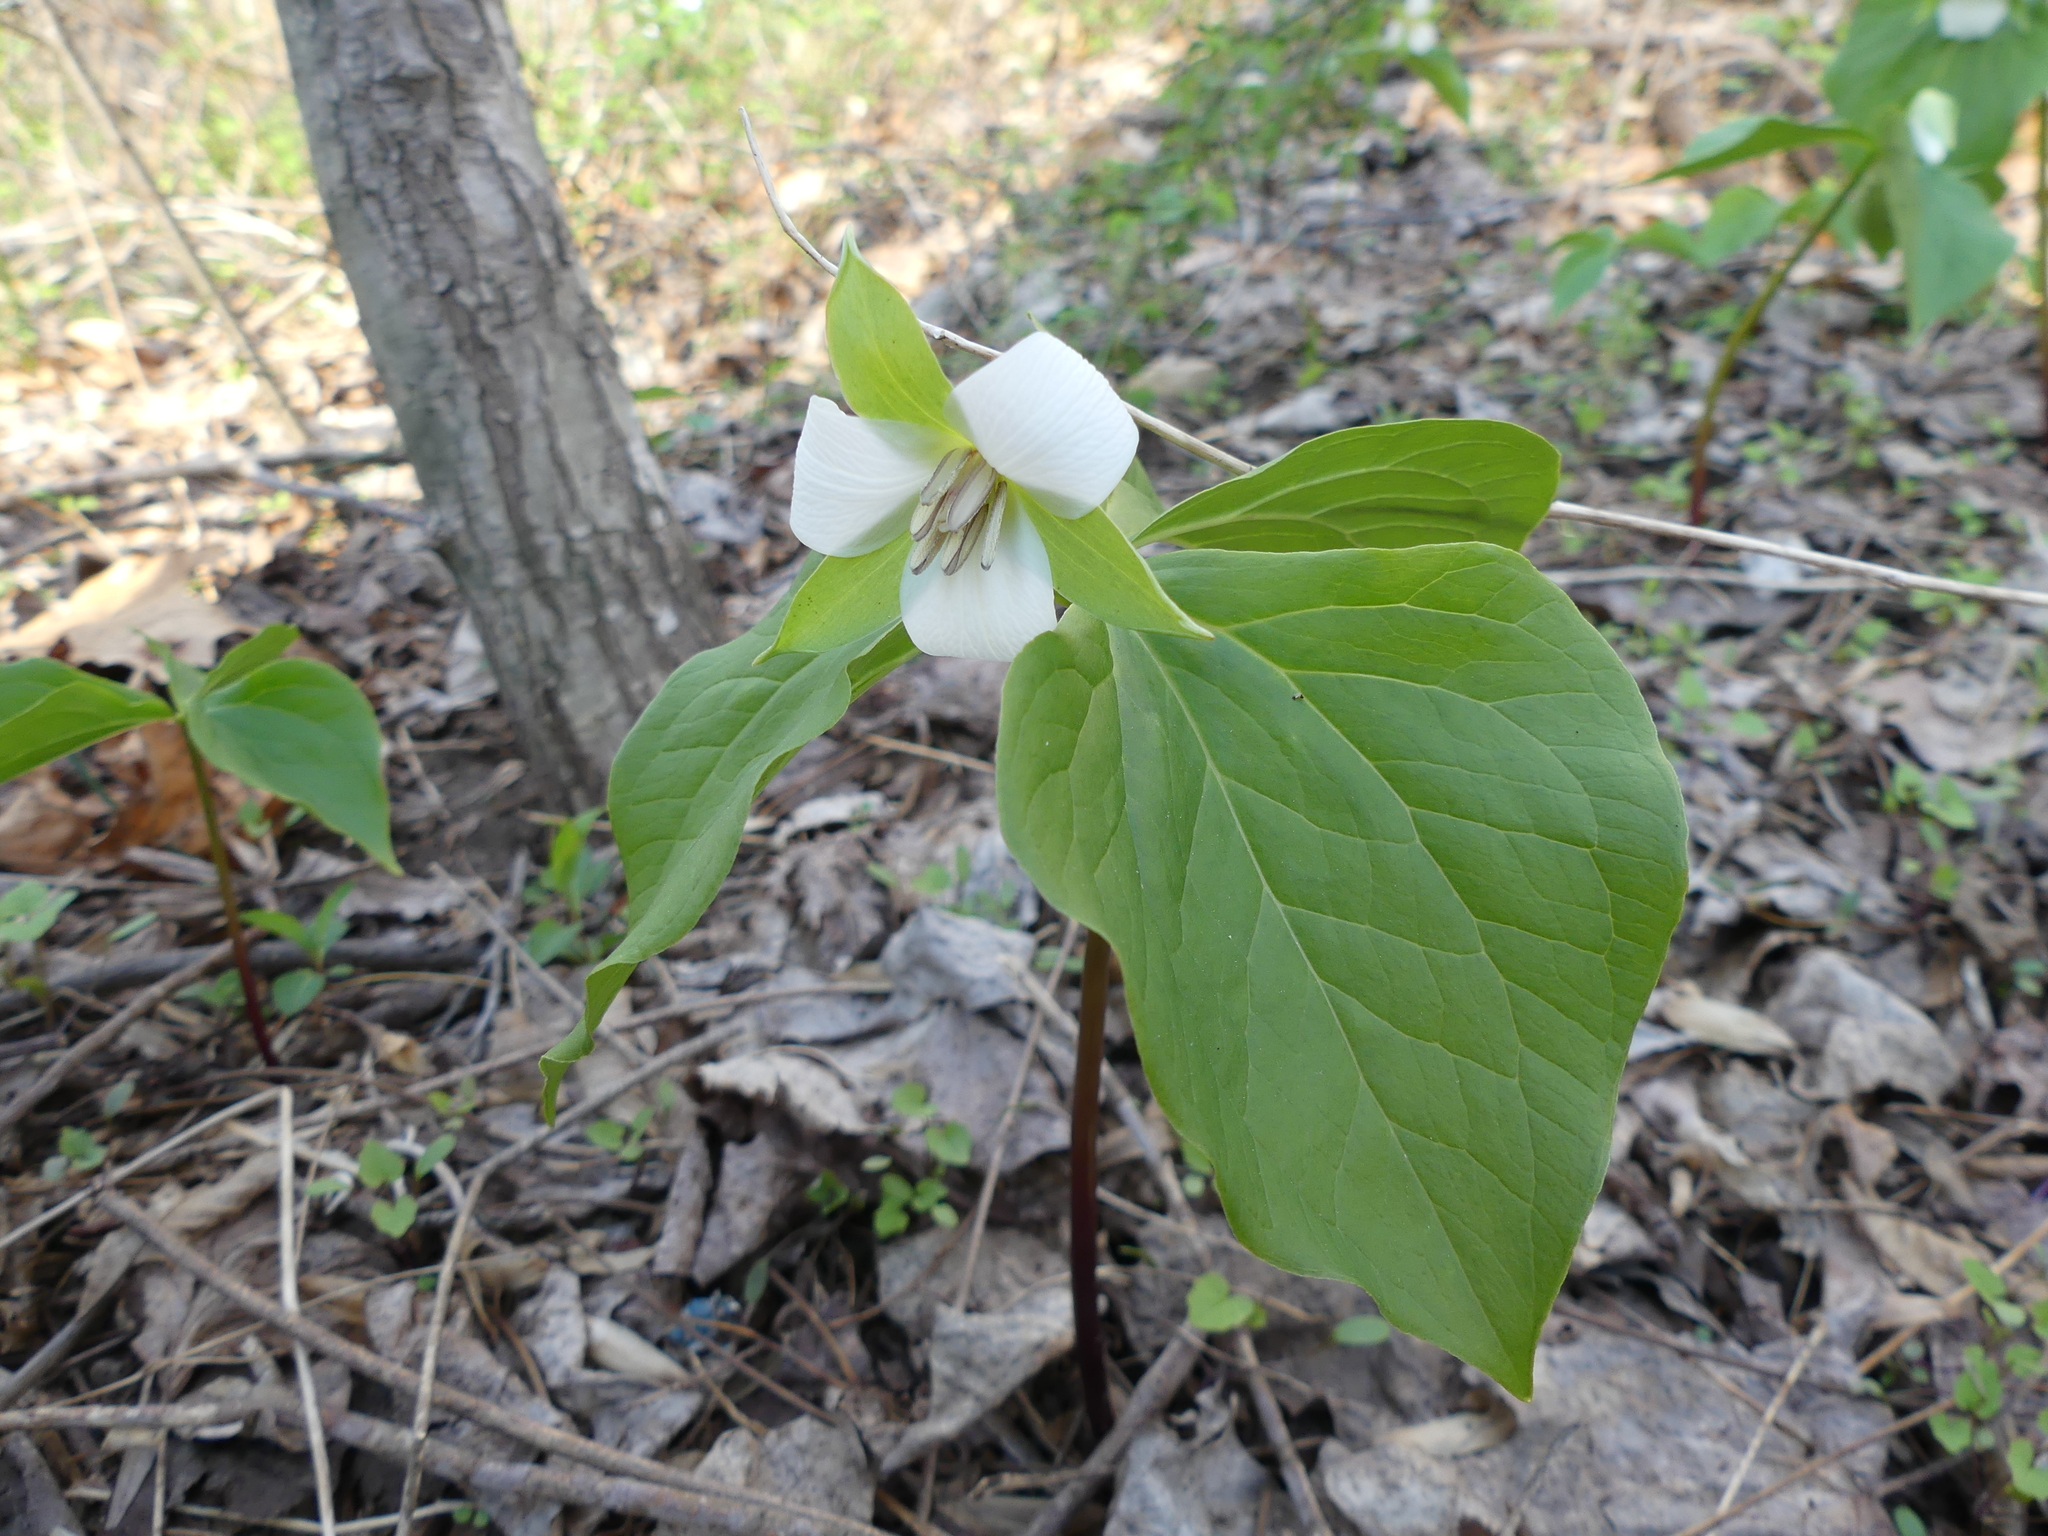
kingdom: Plantae
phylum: Tracheophyta
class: Liliopsida
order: Liliales
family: Melanthiaceae
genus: Trillium
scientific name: Trillium flexipes
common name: Drooping trillium
